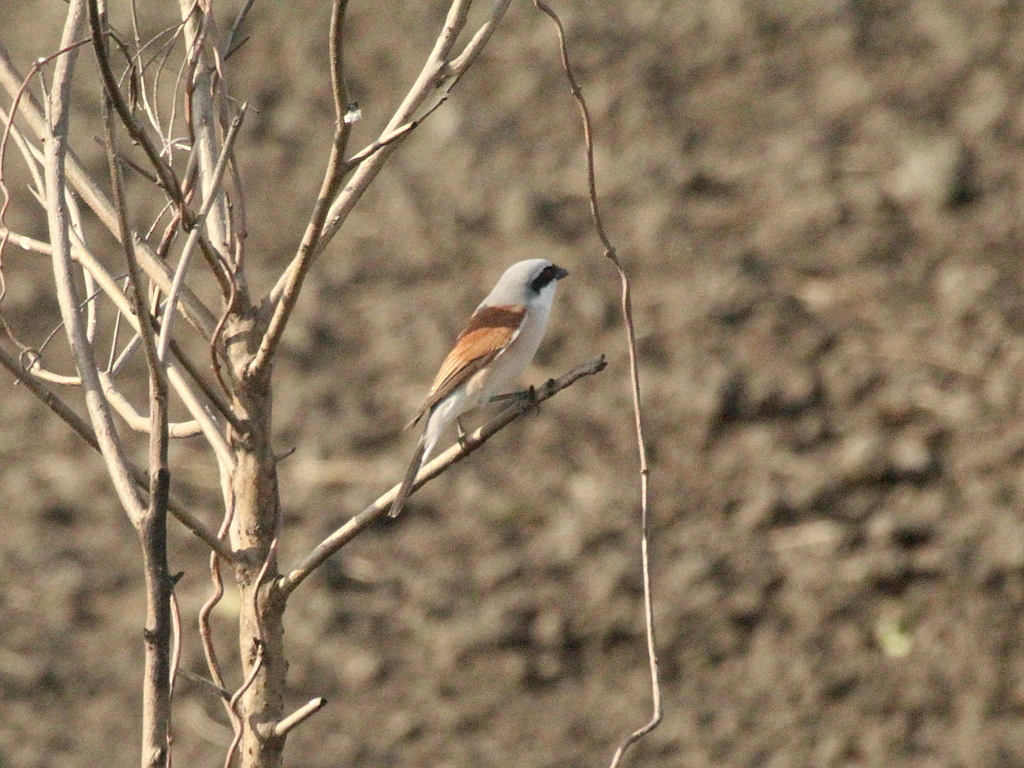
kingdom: Animalia
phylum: Chordata
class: Aves
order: Passeriformes
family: Laniidae
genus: Lanius
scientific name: Lanius collurio
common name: Red-backed shrike
